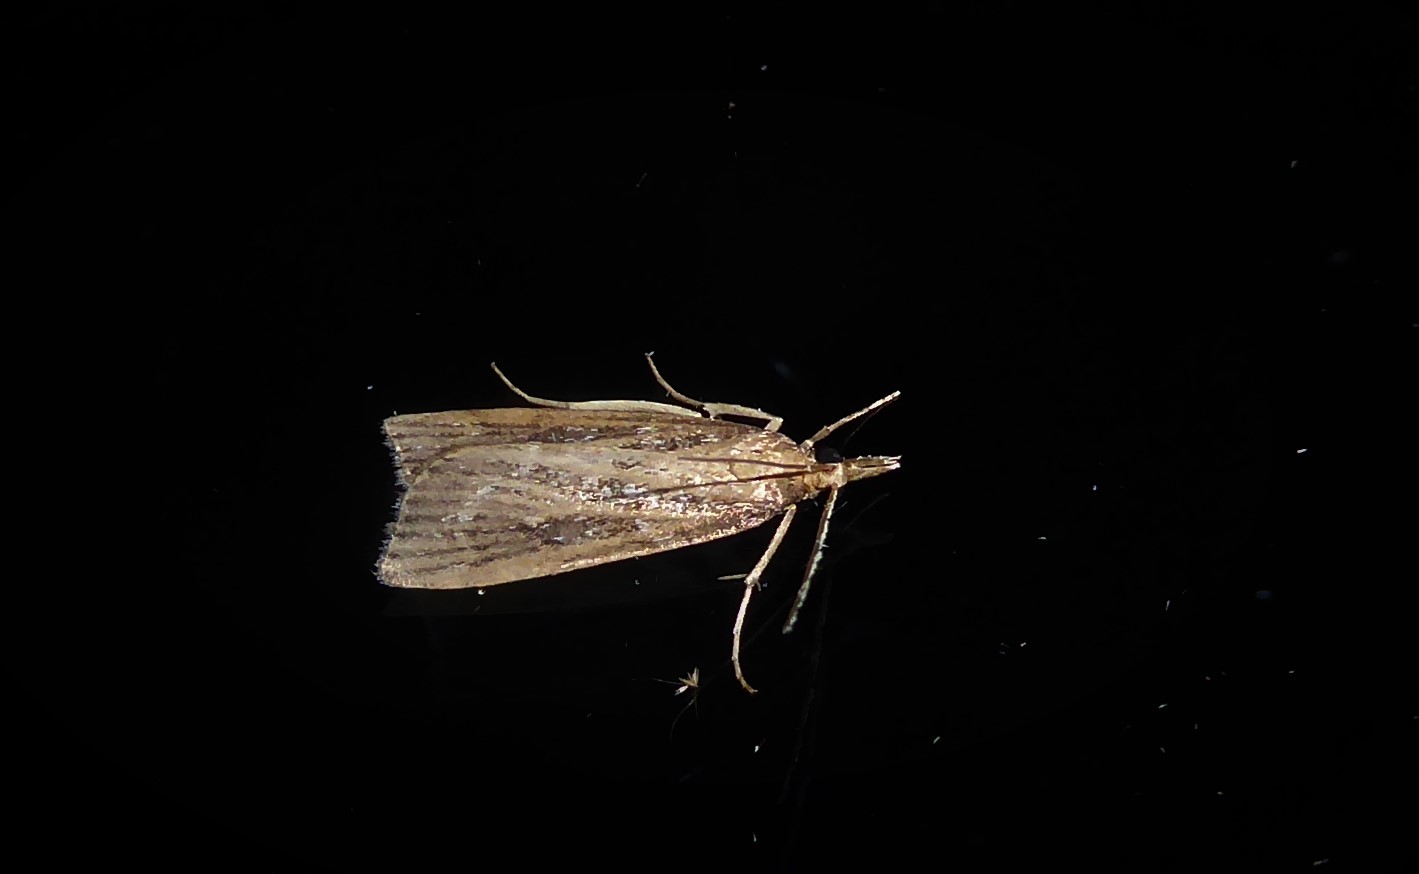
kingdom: Animalia
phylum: Arthropoda
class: Insecta
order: Lepidoptera
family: Crambidae
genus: Eudonia
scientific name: Eudonia octophora
